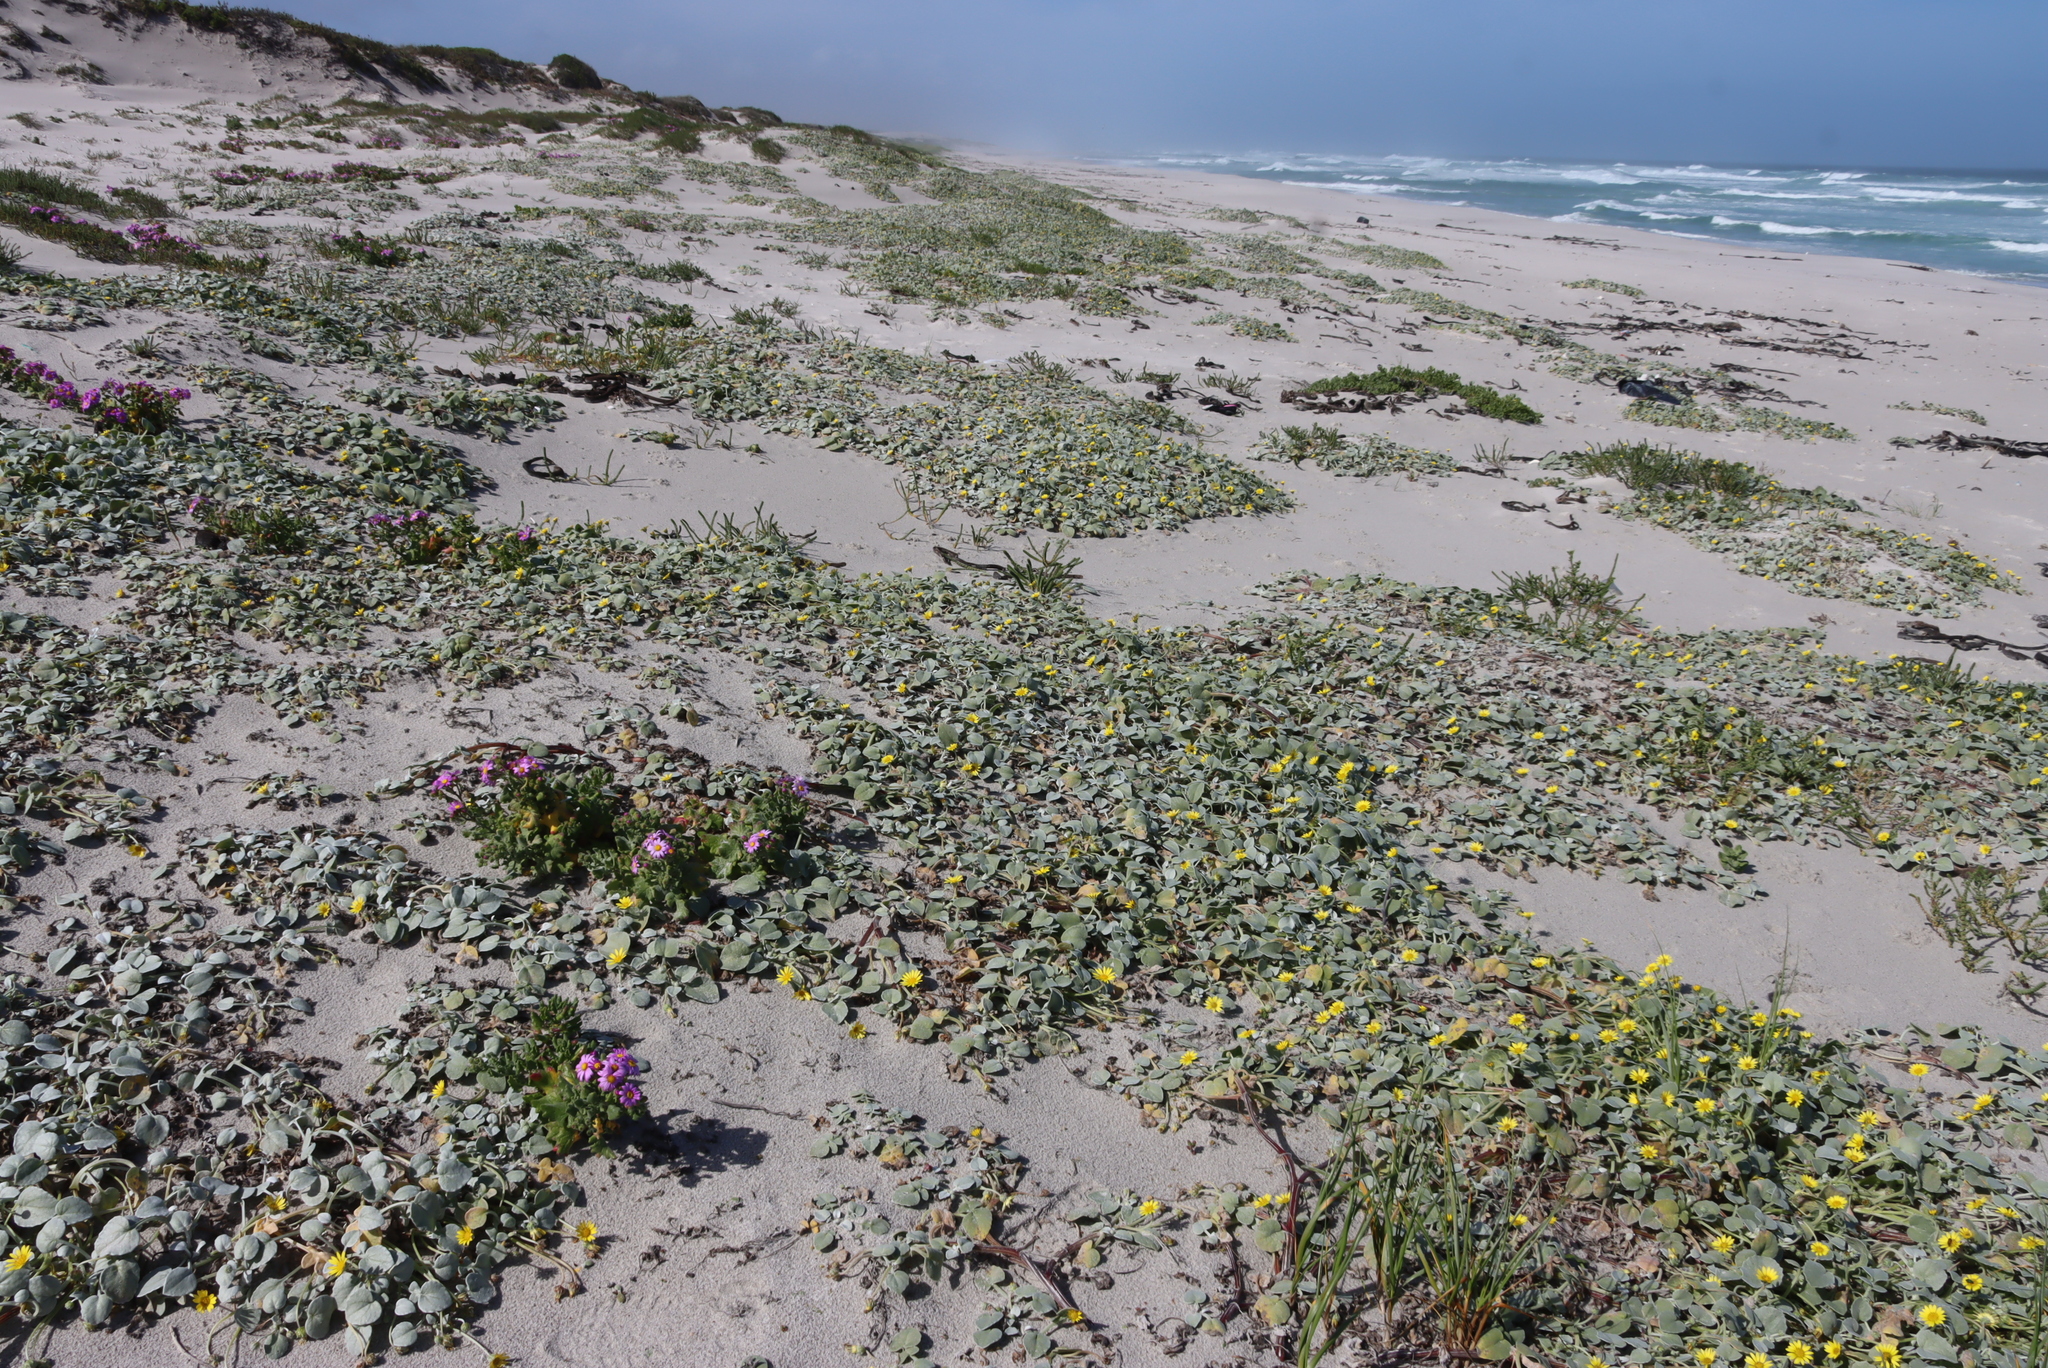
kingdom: Plantae
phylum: Tracheophyta
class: Magnoliopsida
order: Asterales
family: Asteraceae
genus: Arctotheca
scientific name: Arctotheca populifolia
